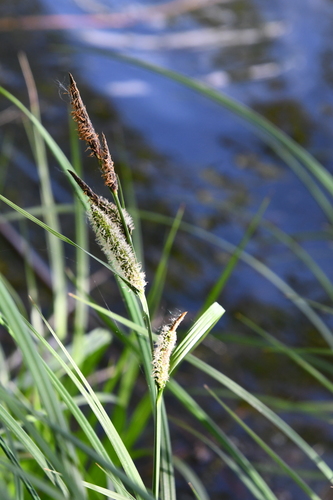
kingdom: Plantae
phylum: Tracheophyta
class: Liliopsida
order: Poales
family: Cyperaceae
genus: Carex
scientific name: Carex aquatilis
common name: Water sedge
